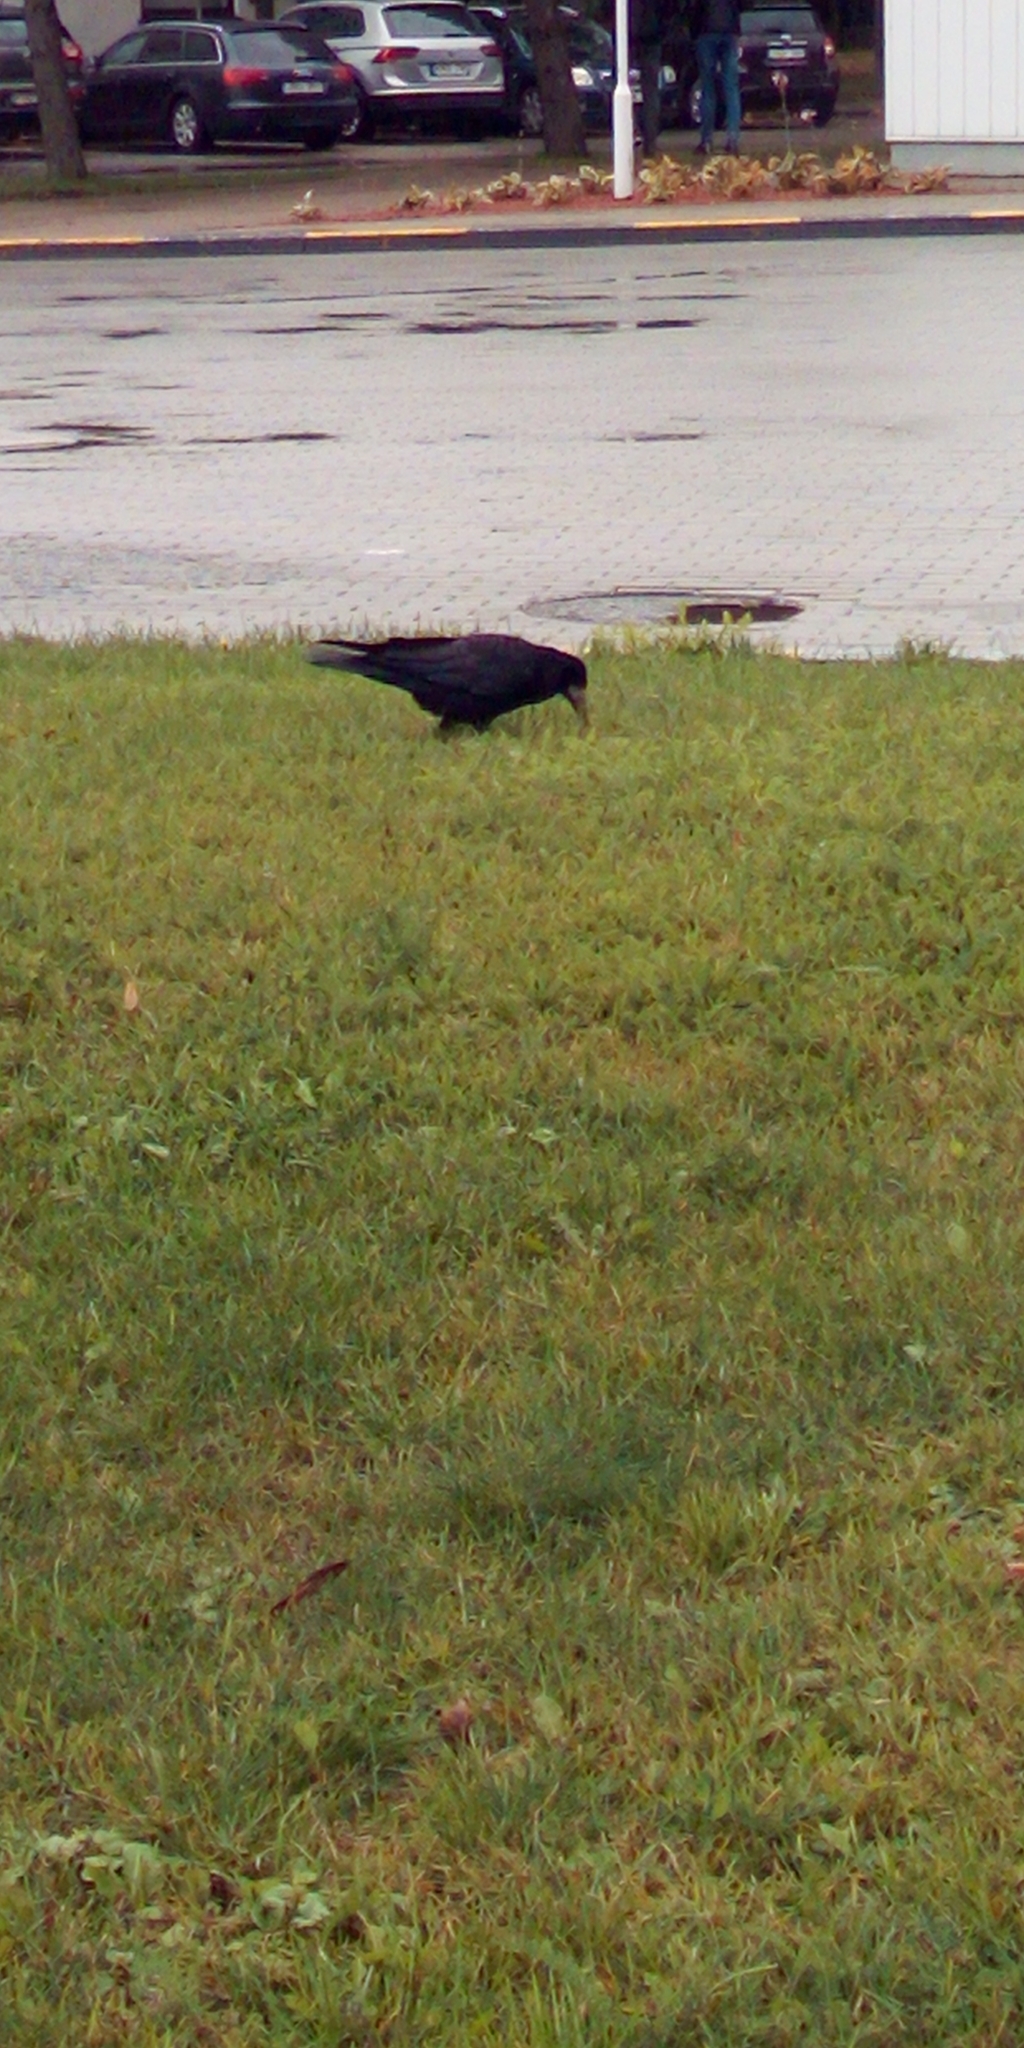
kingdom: Animalia
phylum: Chordata
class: Aves
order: Passeriformes
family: Corvidae
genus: Corvus
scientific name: Corvus frugilegus
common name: Rook
